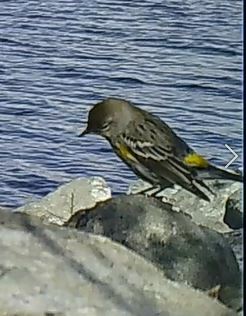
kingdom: Animalia
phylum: Chordata
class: Aves
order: Passeriformes
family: Parulidae
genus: Setophaga
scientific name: Setophaga auduboni
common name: Audubon's warbler
